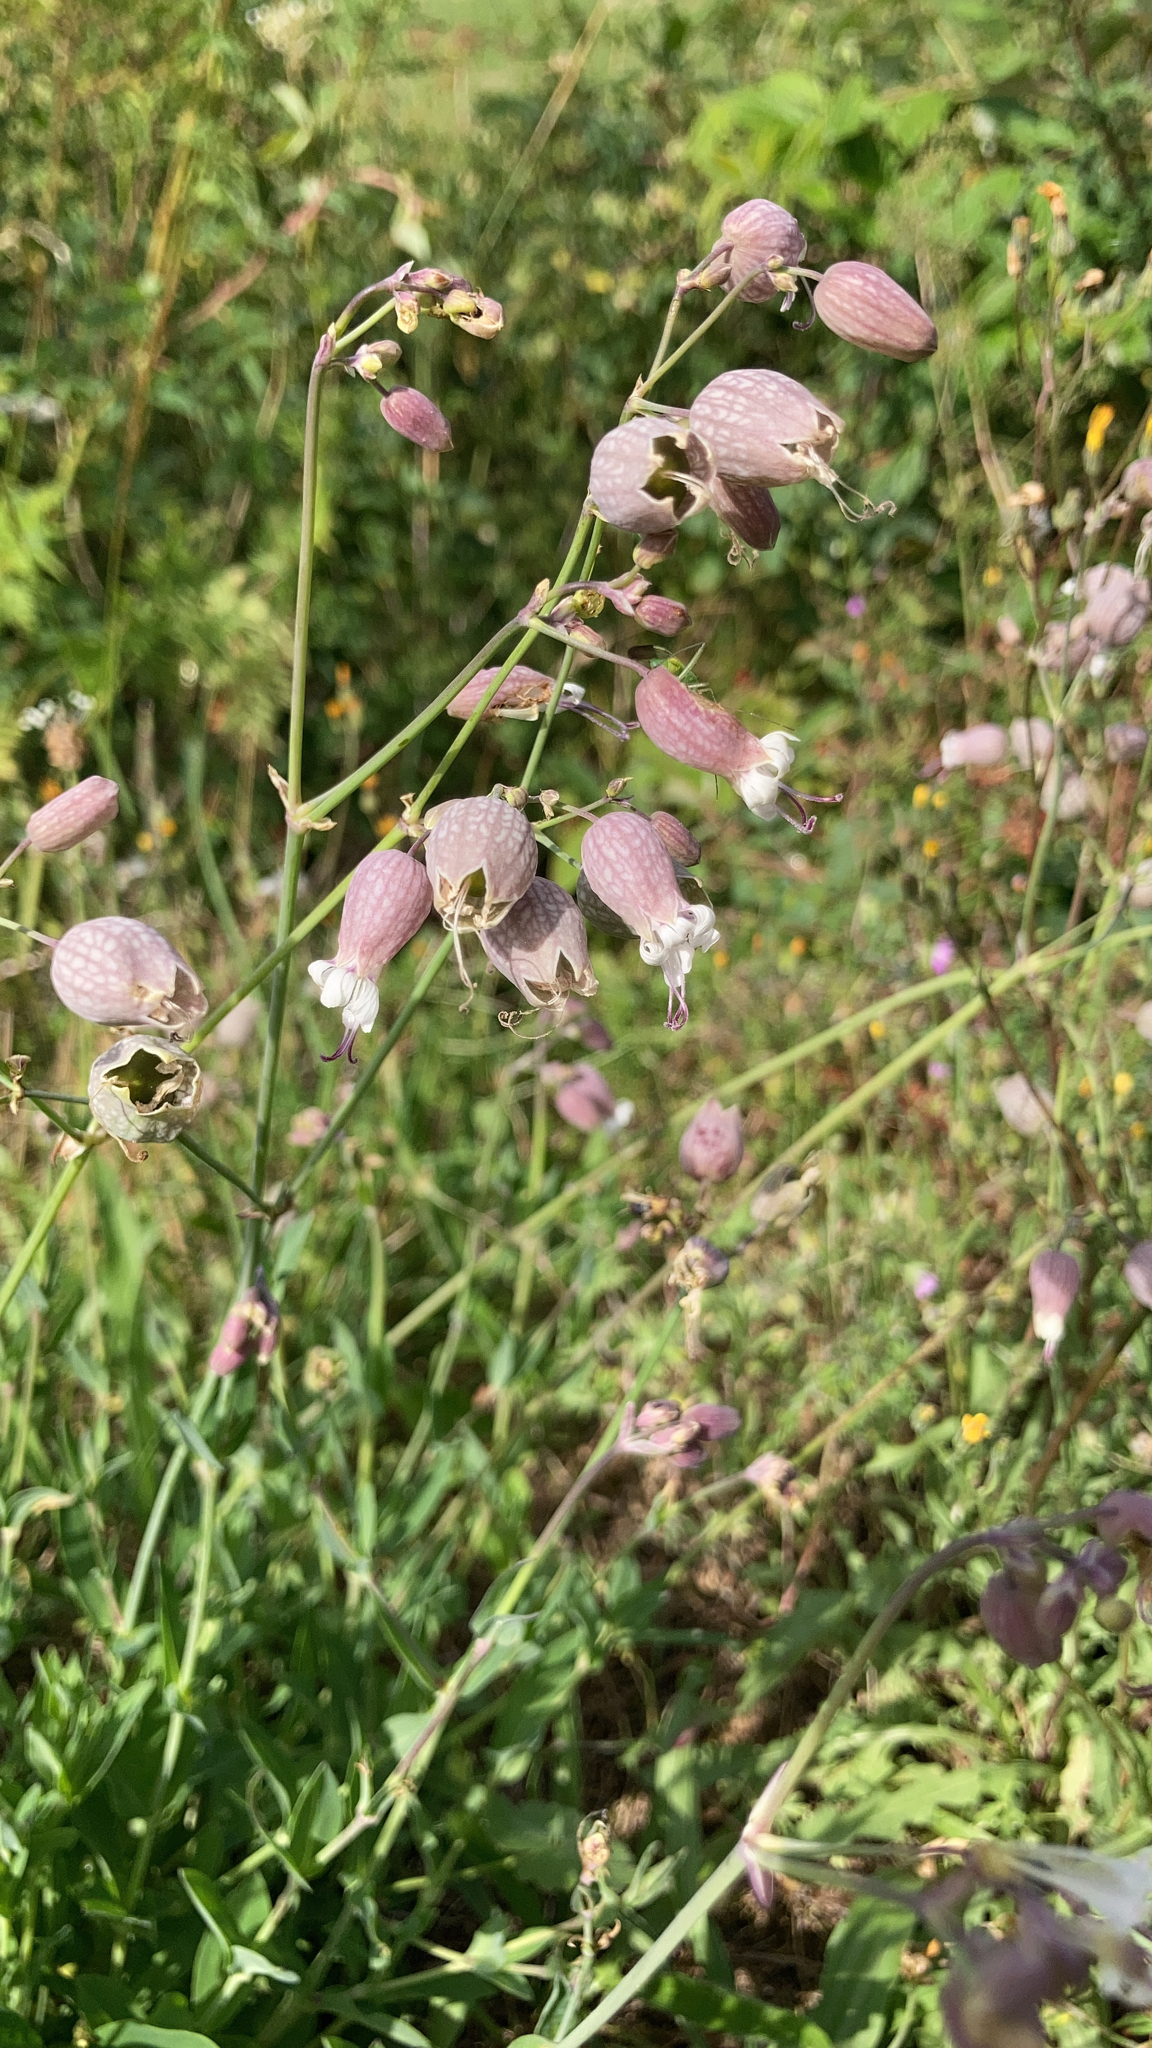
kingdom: Plantae
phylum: Tracheophyta
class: Magnoliopsida
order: Caryophyllales
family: Caryophyllaceae
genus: Silene
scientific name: Silene vulgaris
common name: Bladder campion
